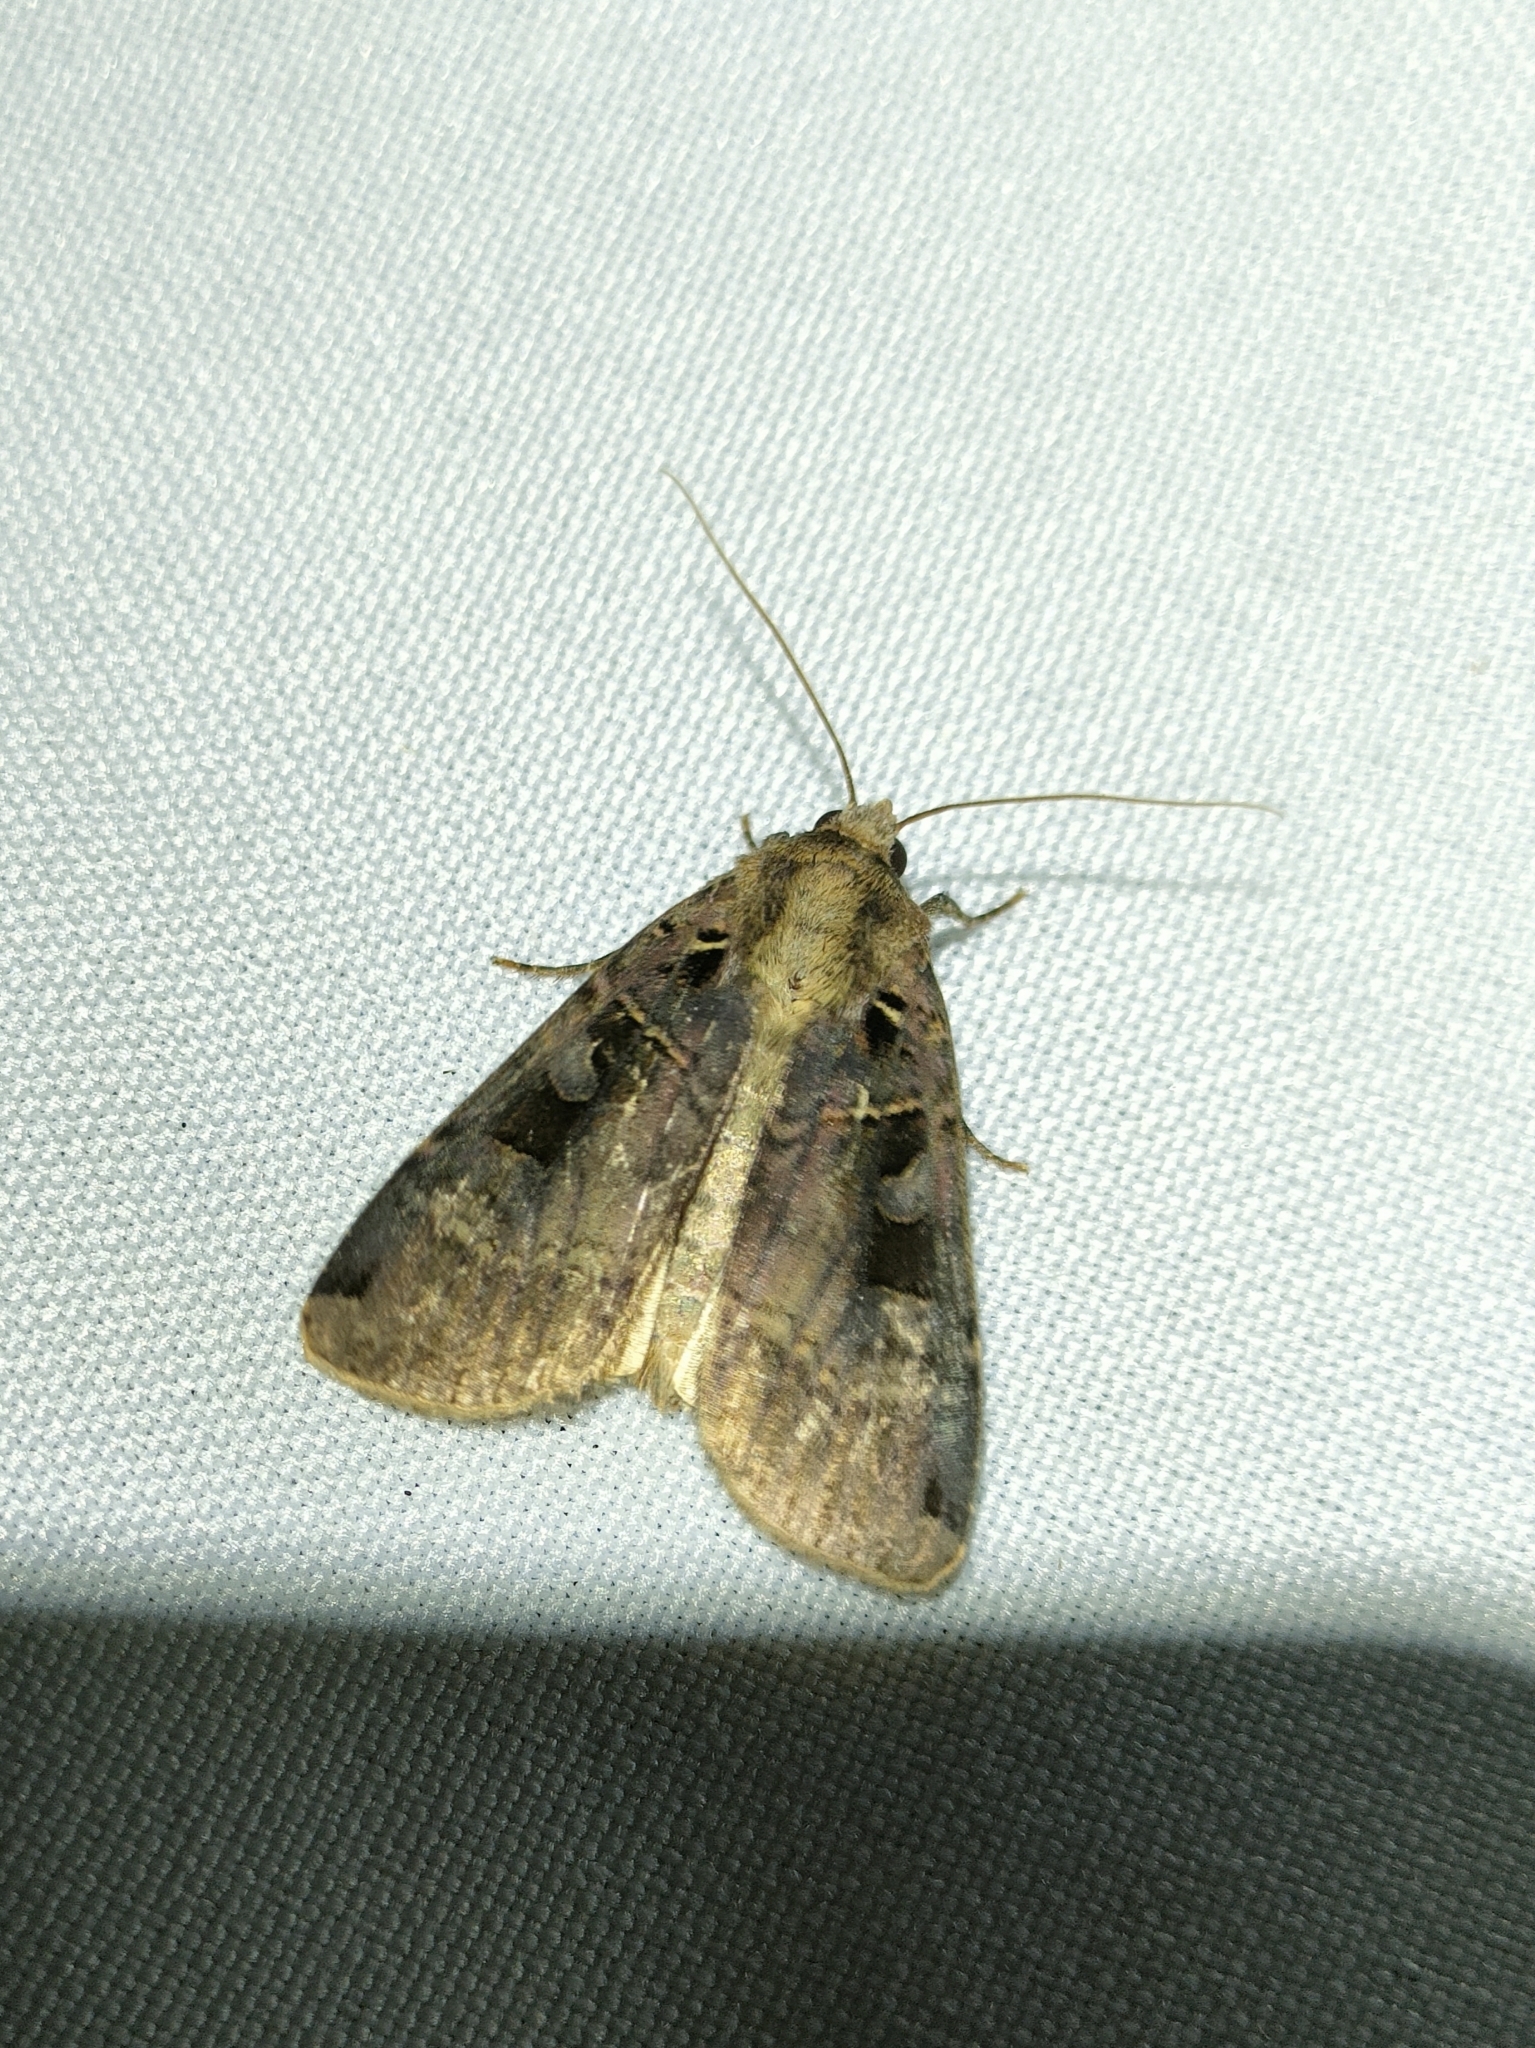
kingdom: Animalia
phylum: Arthropoda
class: Insecta
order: Lepidoptera
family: Noctuidae
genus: Xestia
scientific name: Xestia c-nigrum
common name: Setaceous hebrew character
